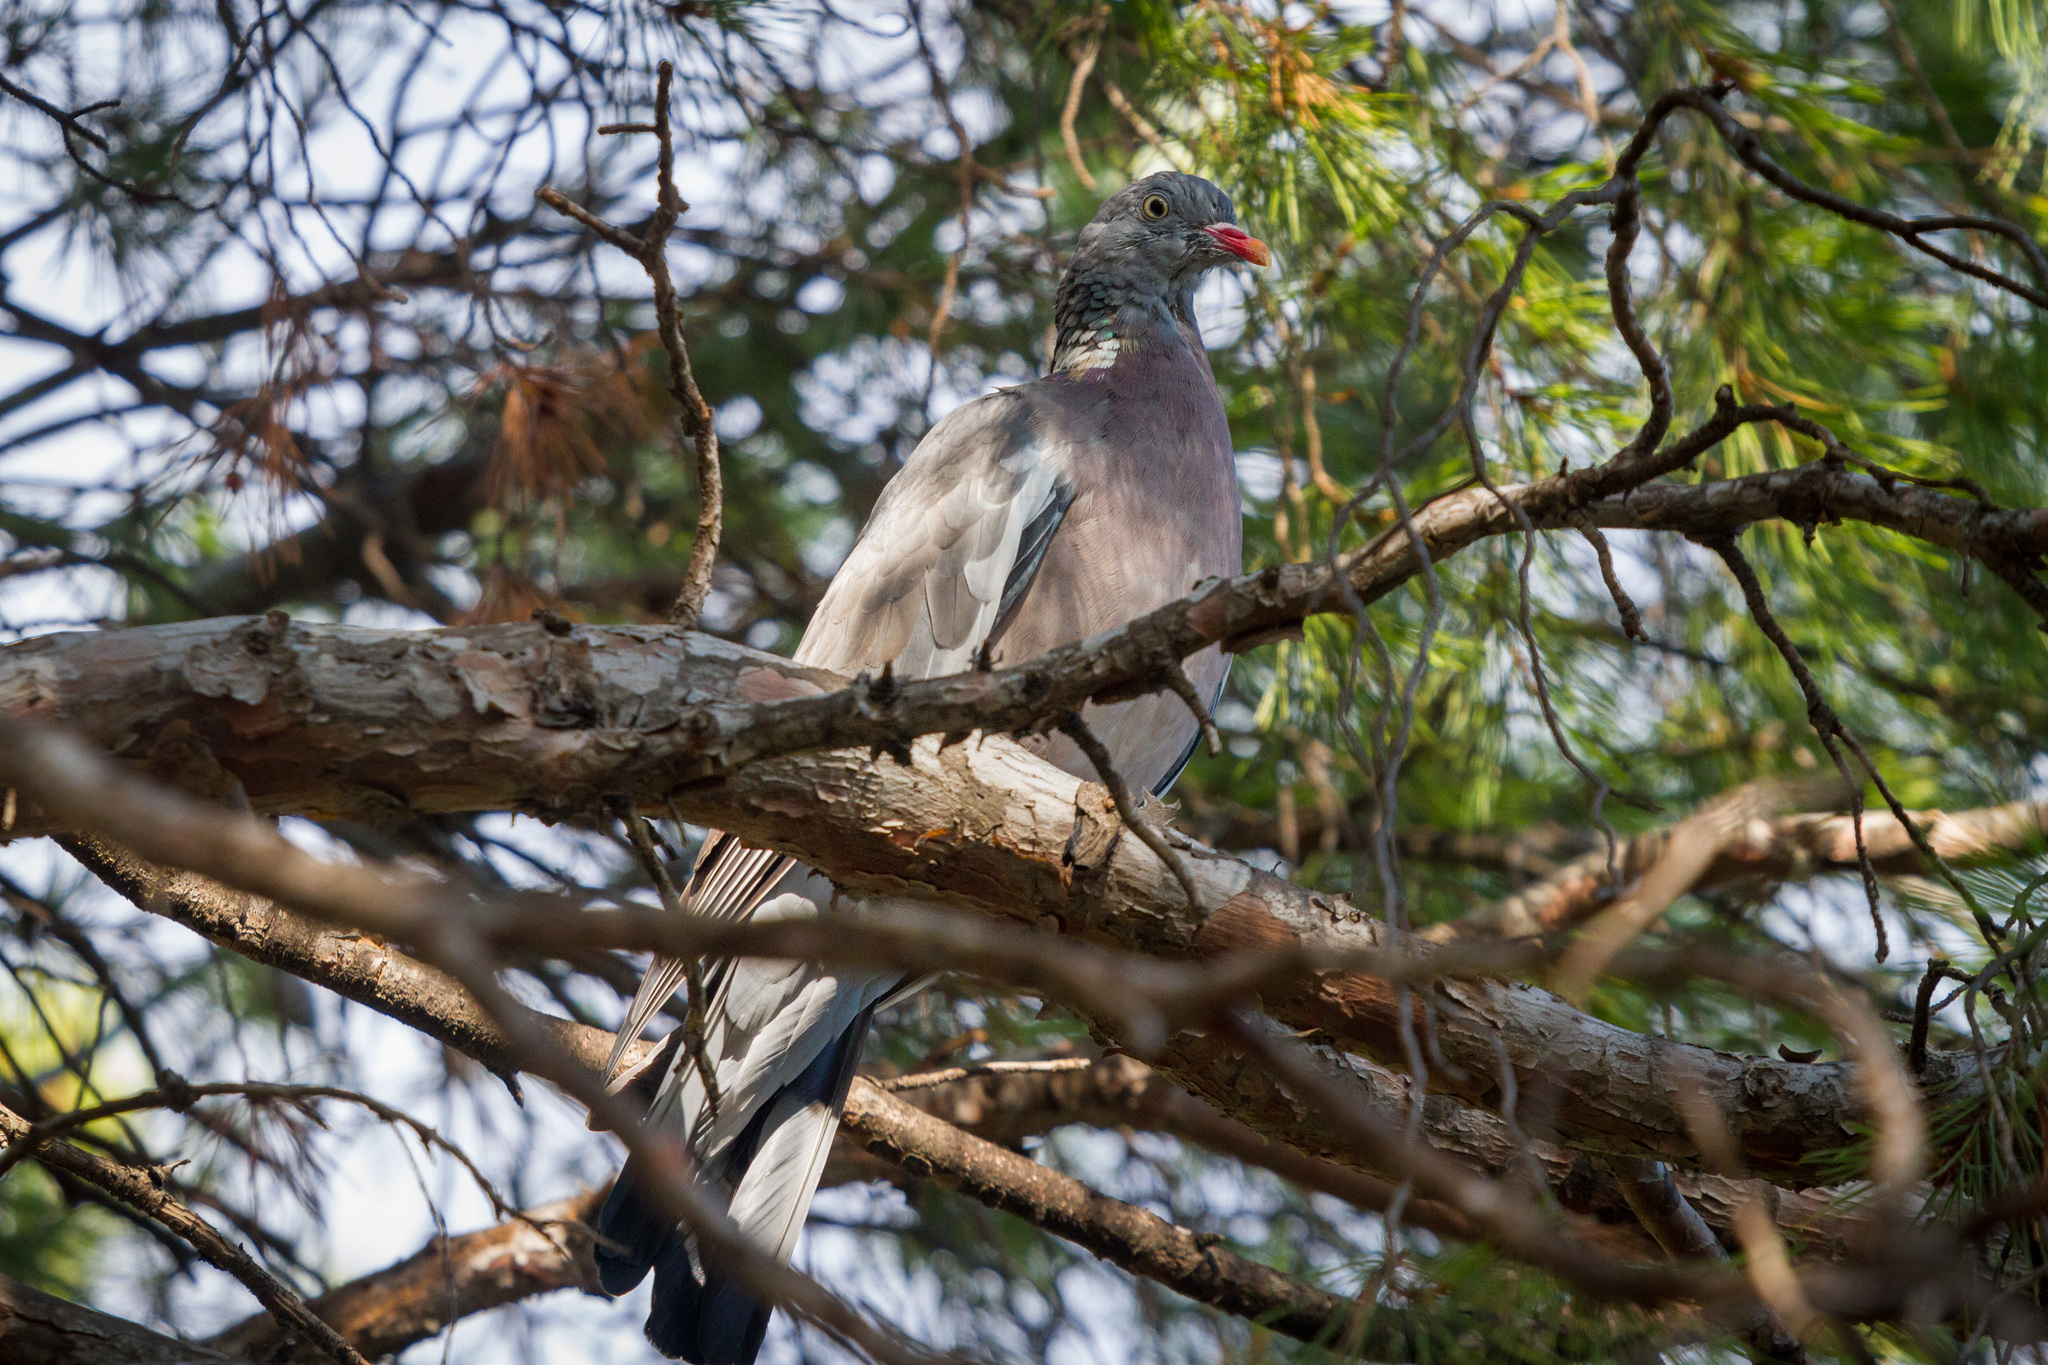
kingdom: Animalia
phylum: Chordata
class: Aves
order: Columbiformes
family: Columbidae
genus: Columba
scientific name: Columba palumbus
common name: Common wood pigeon
